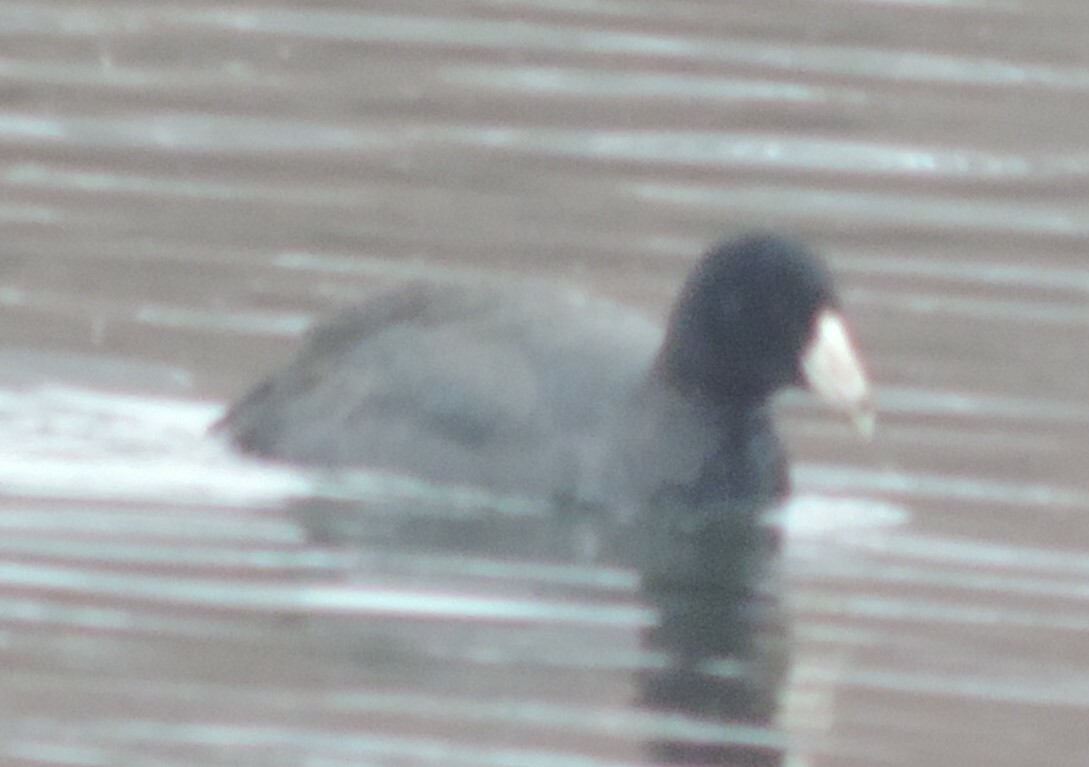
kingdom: Animalia
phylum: Chordata
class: Aves
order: Gruiformes
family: Rallidae
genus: Fulica
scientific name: Fulica americana
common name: American coot
